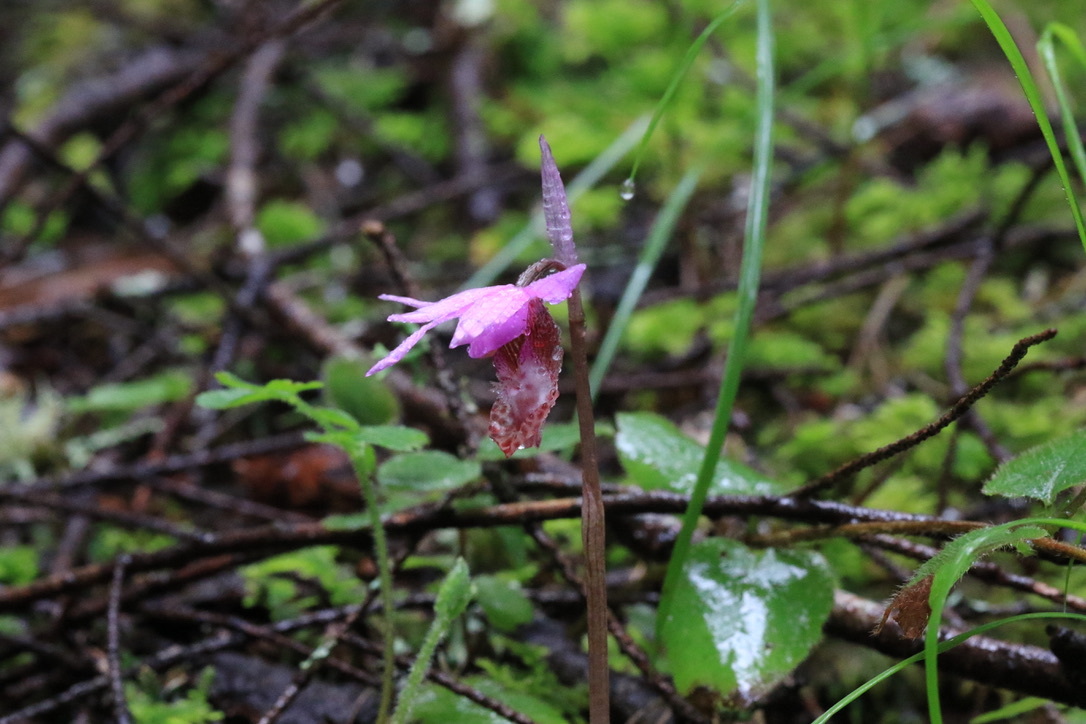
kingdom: Plantae
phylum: Tracheophyta
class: Liliopsida
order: Asparagales
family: Orchidaceae
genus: Calypso
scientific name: Calypso bulbosa
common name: Calypso
